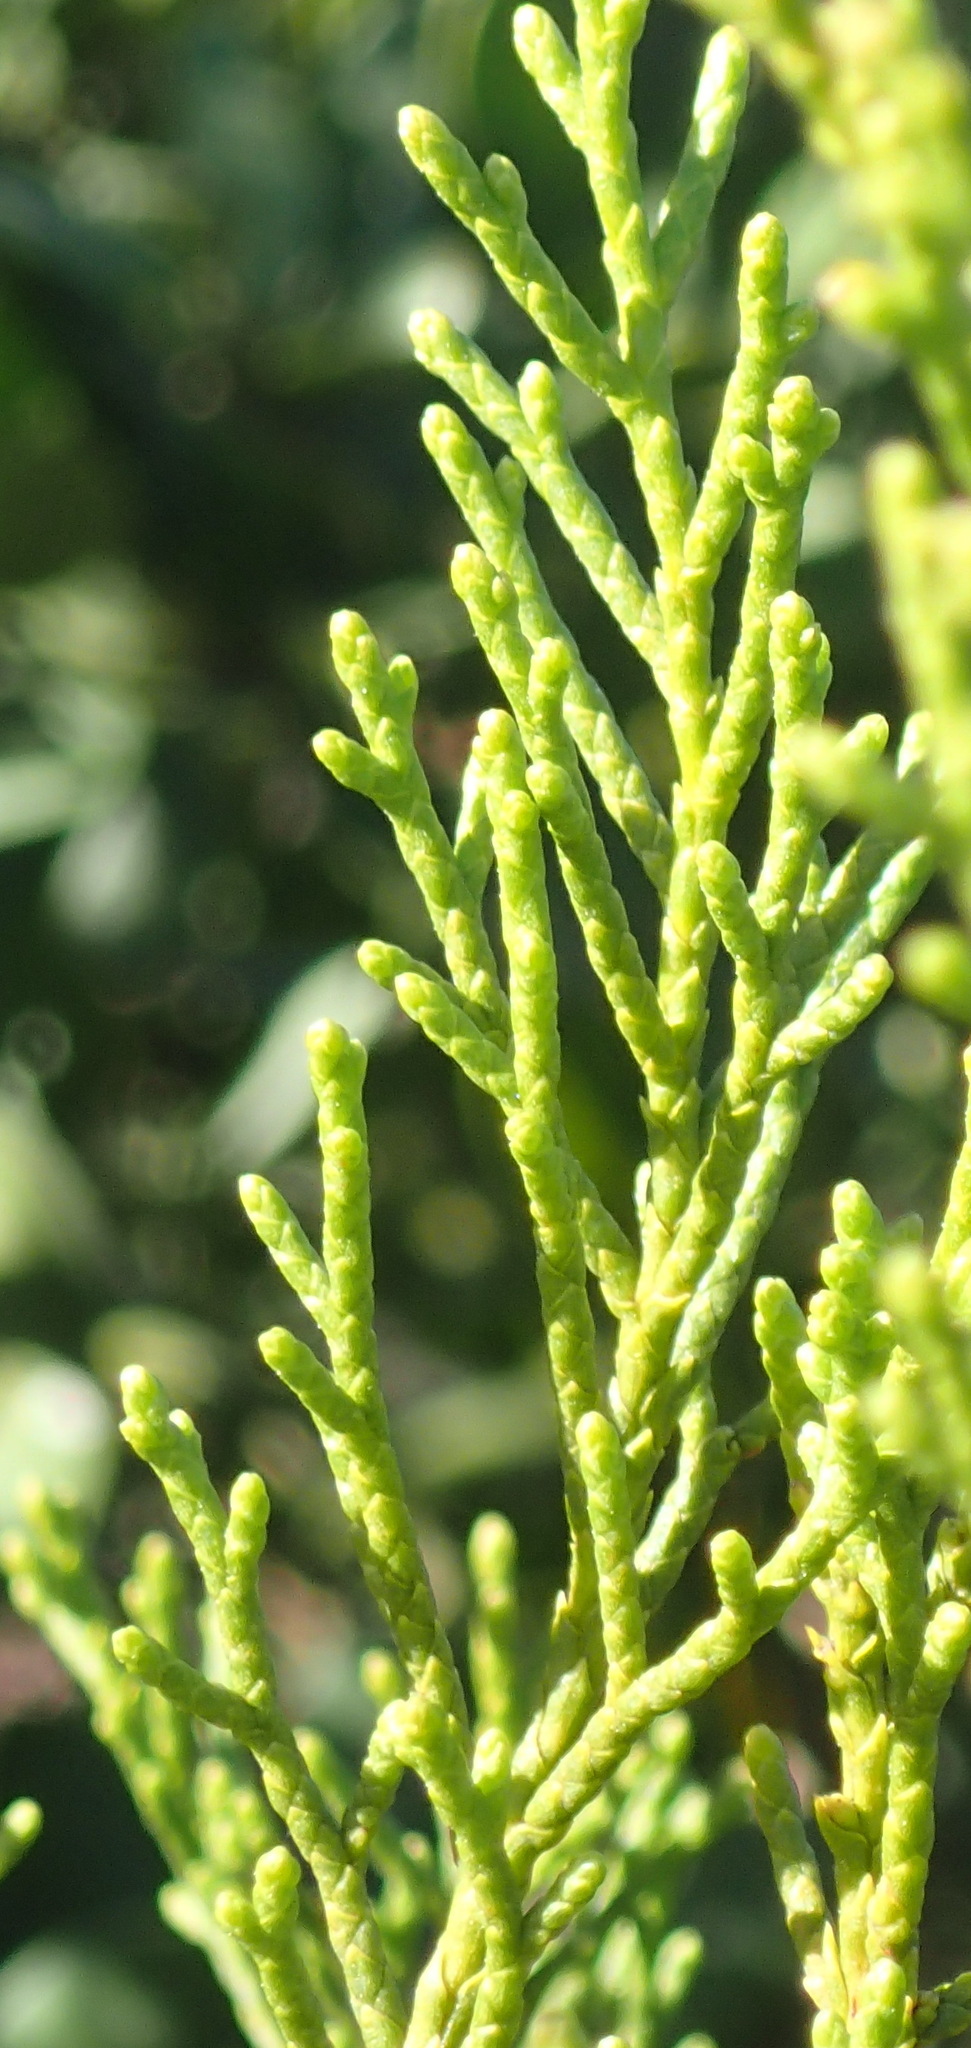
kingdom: Plantae
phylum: Tracheophyta
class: Pinopsida
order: Pinales
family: Cupressaceae
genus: Widdringtonia
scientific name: Widdringtonia nodiflora
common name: Cape cypress
